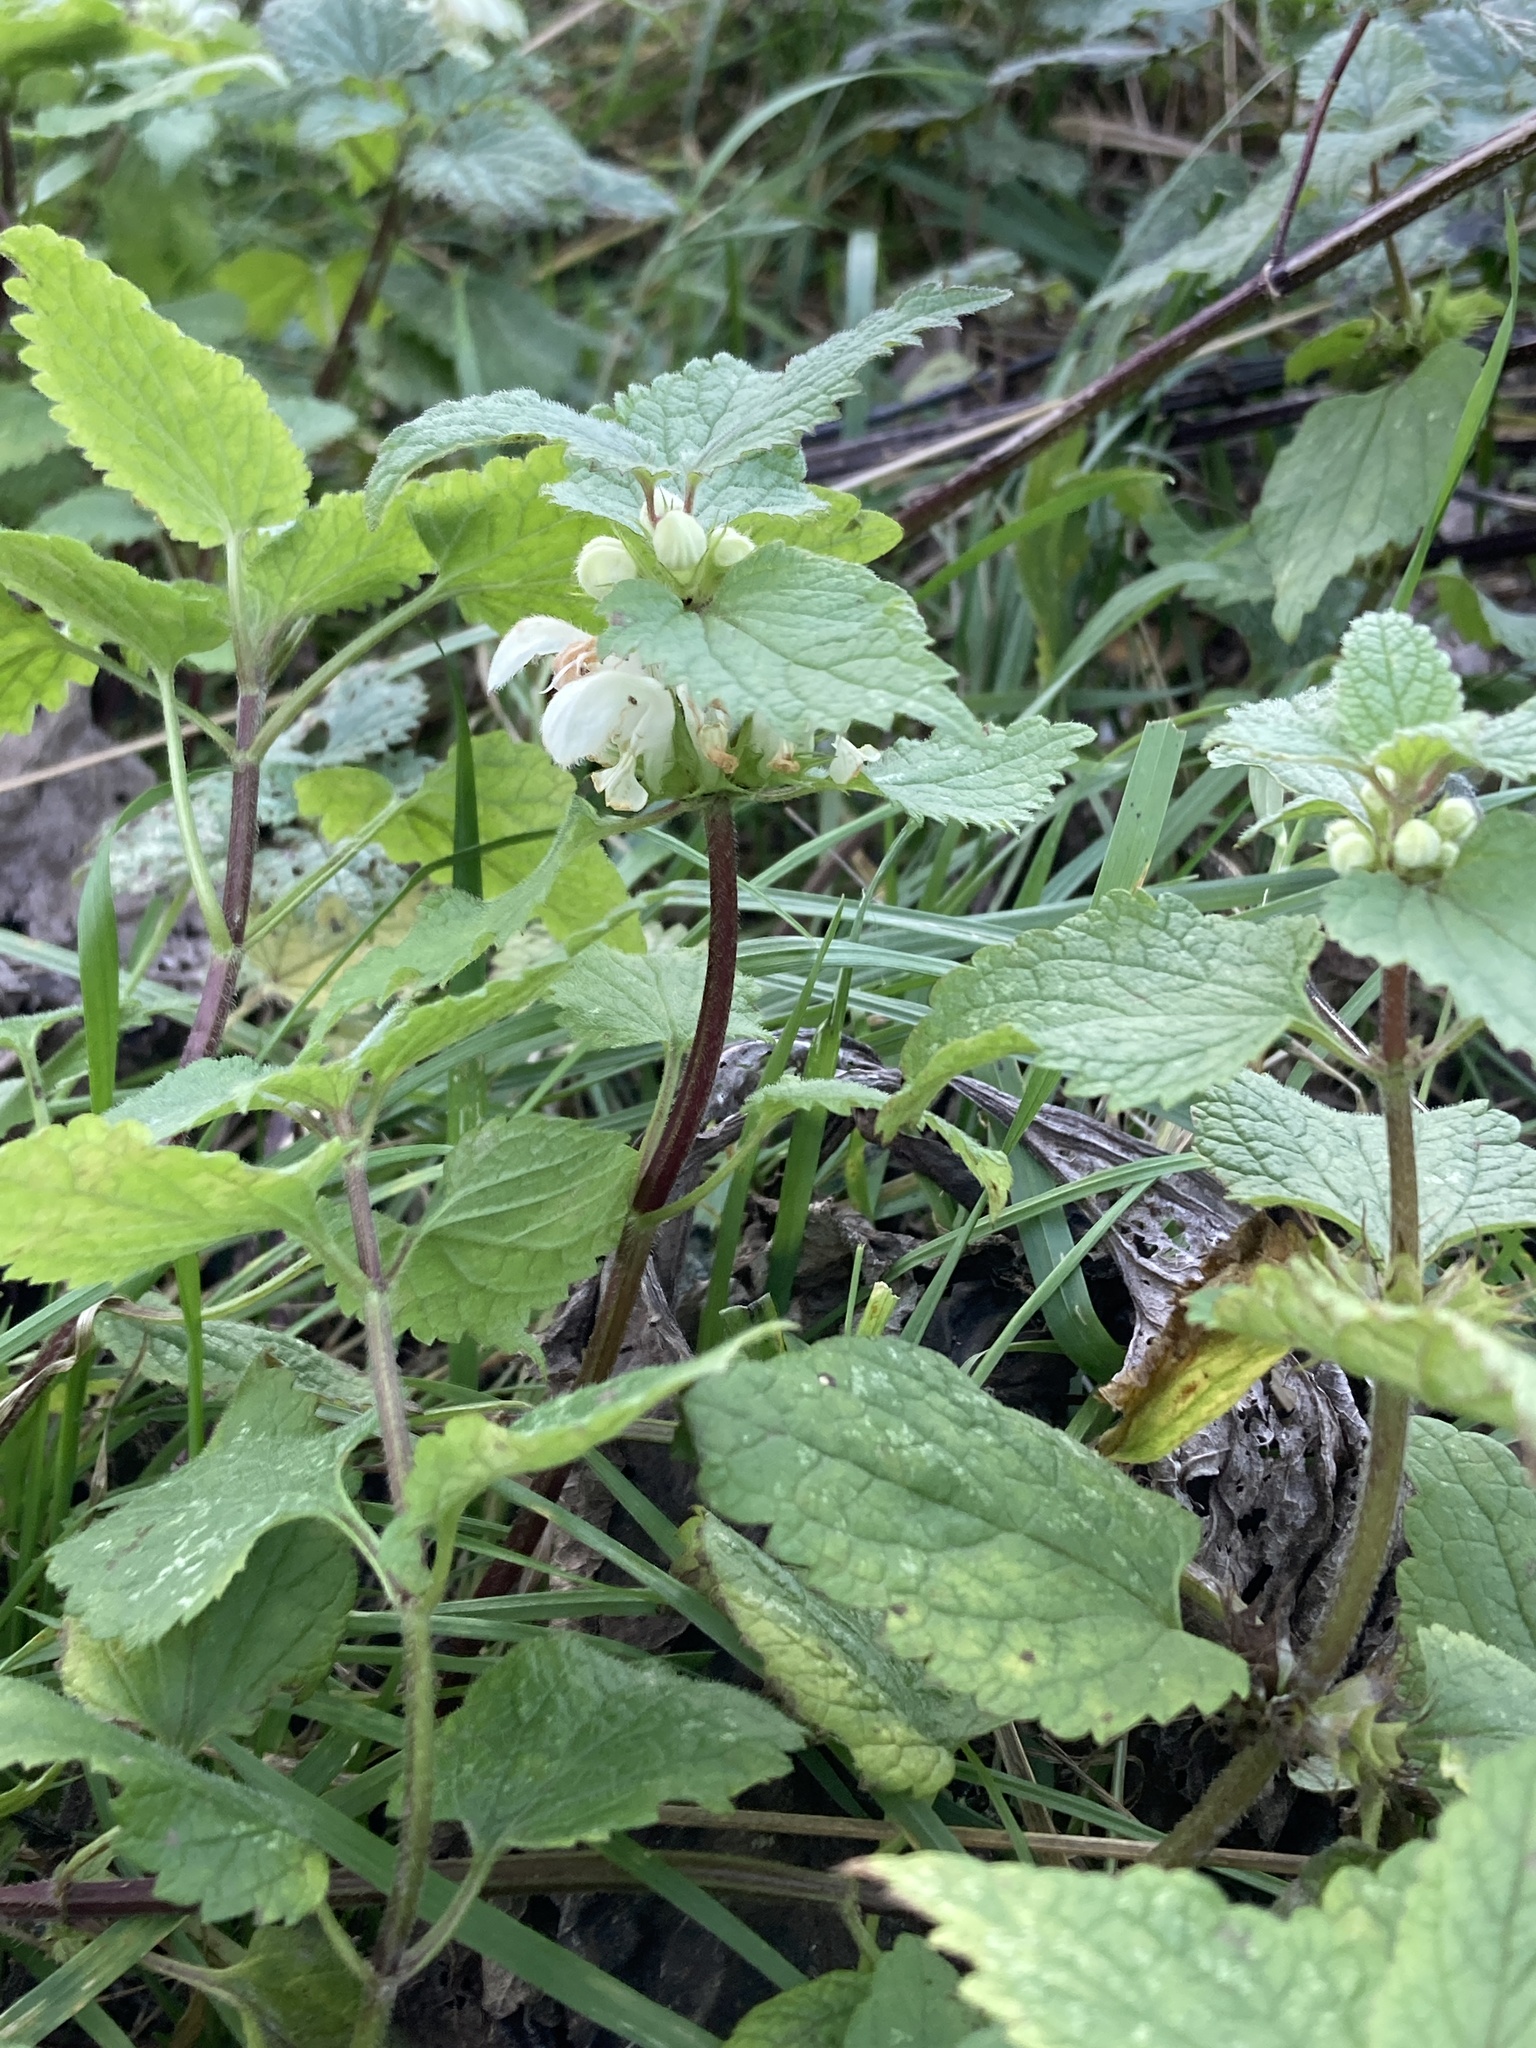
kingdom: Plantae
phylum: Tracheophyta
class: Magnoliopsida
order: Lamiales
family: Lamiaceae
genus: Lamium
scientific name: Lamium album
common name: White dead-nettle
